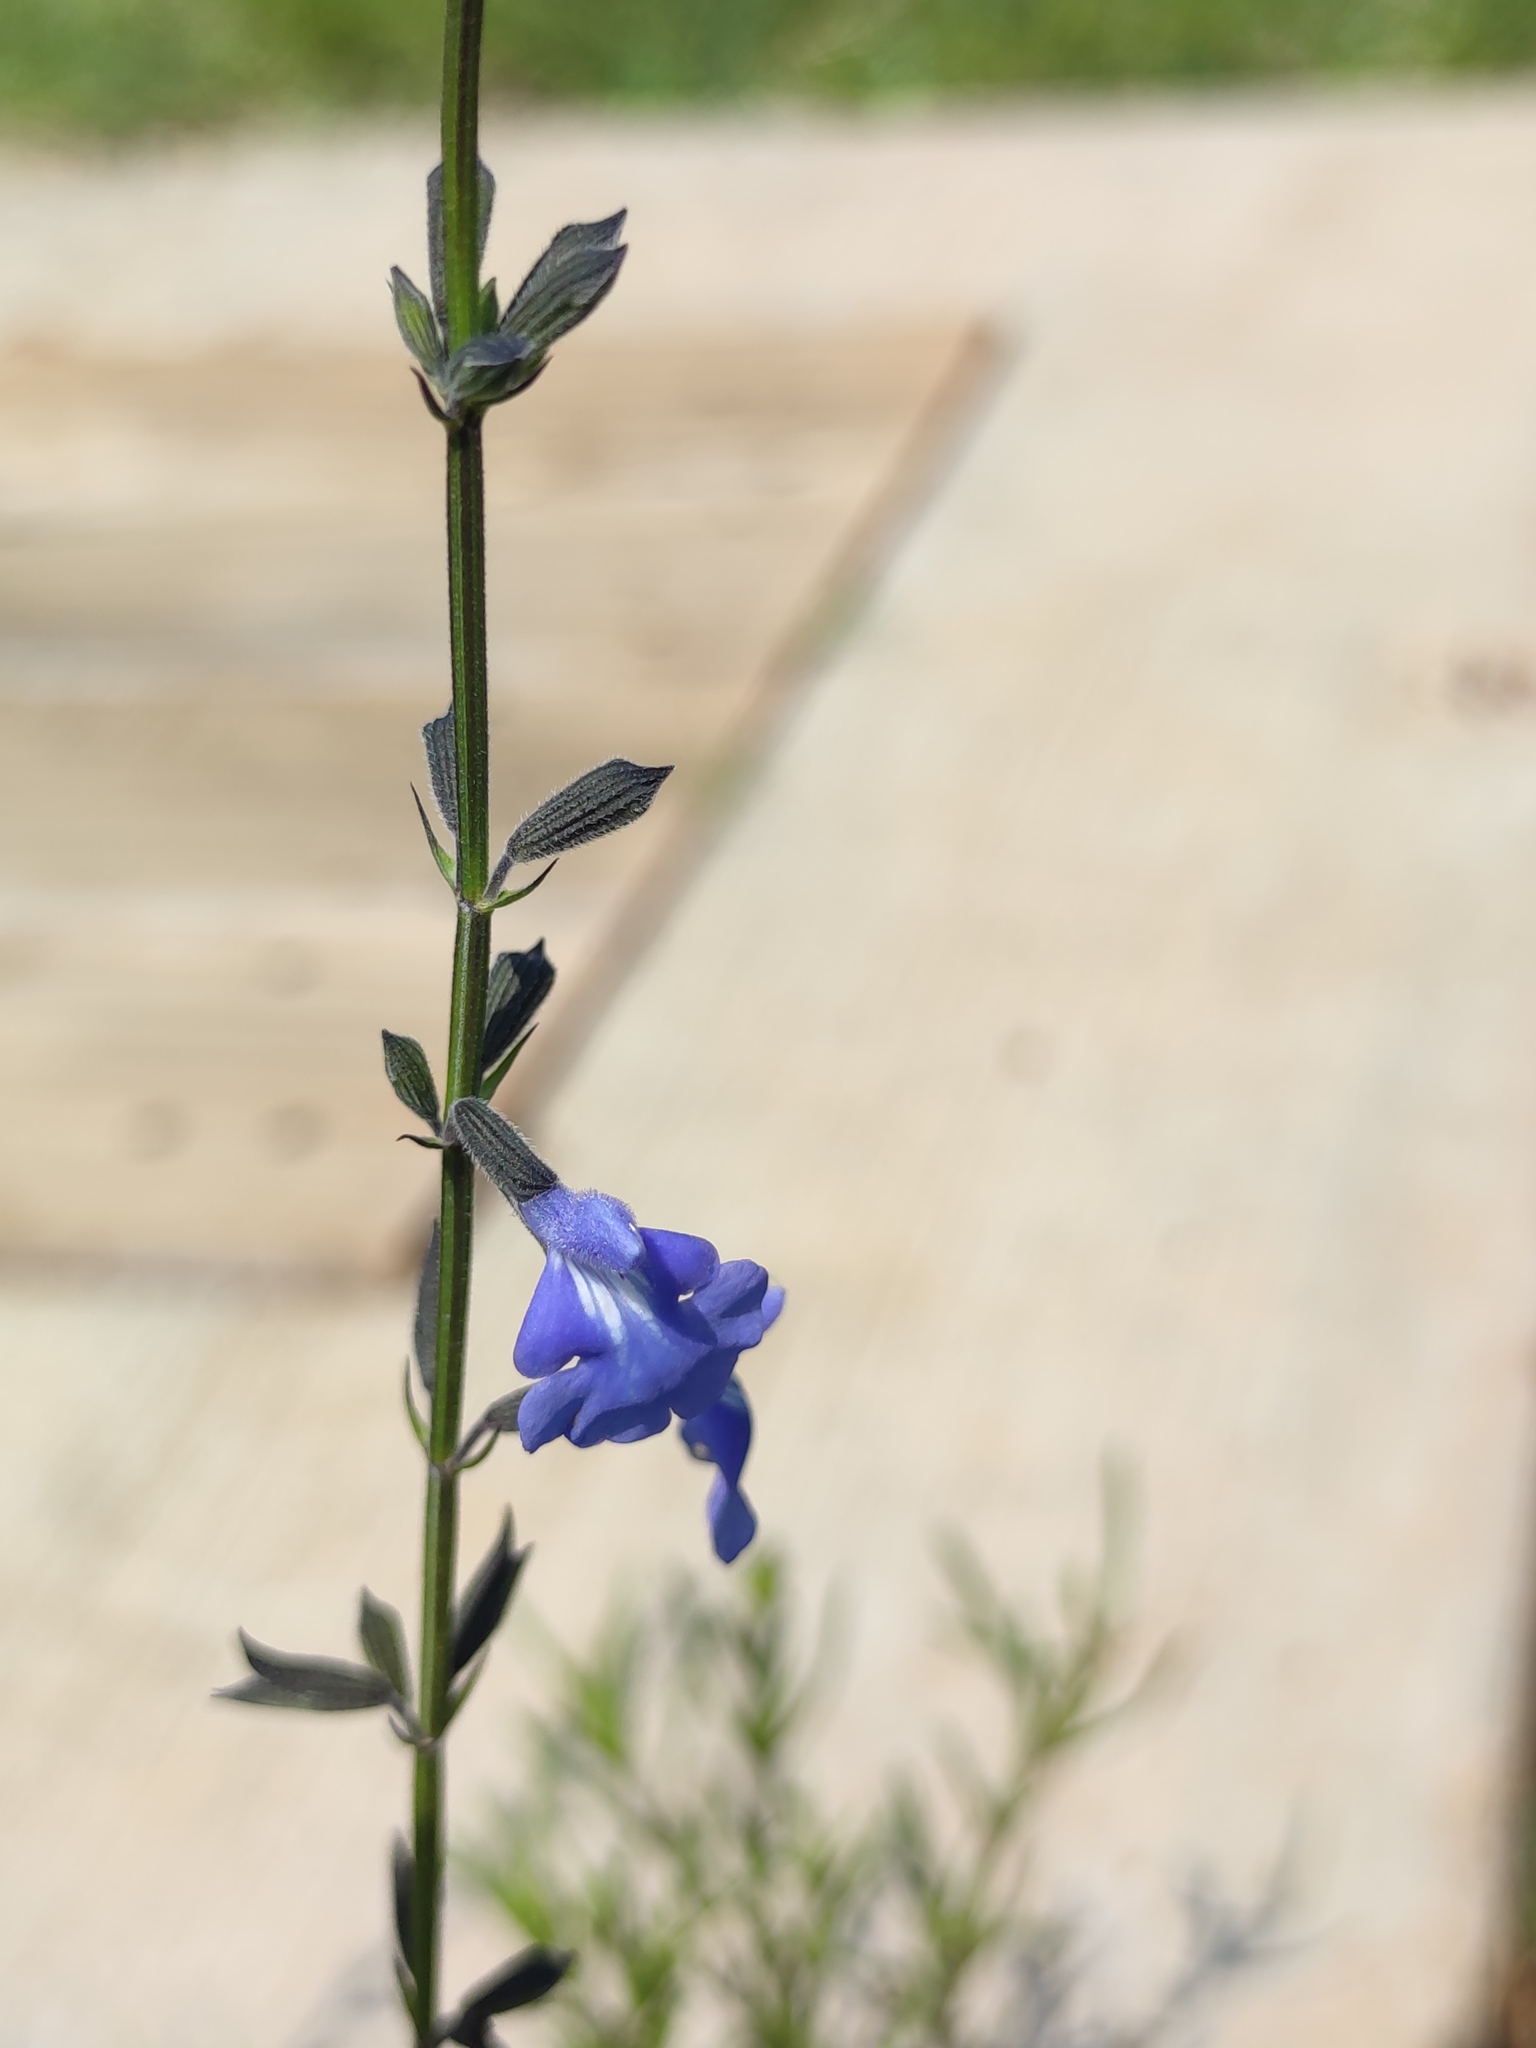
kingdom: Plantae
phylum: Tracheophyta
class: Magnoliopsida
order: Lamiales
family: Lamiaceae
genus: Salvia
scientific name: Salvia reptans
